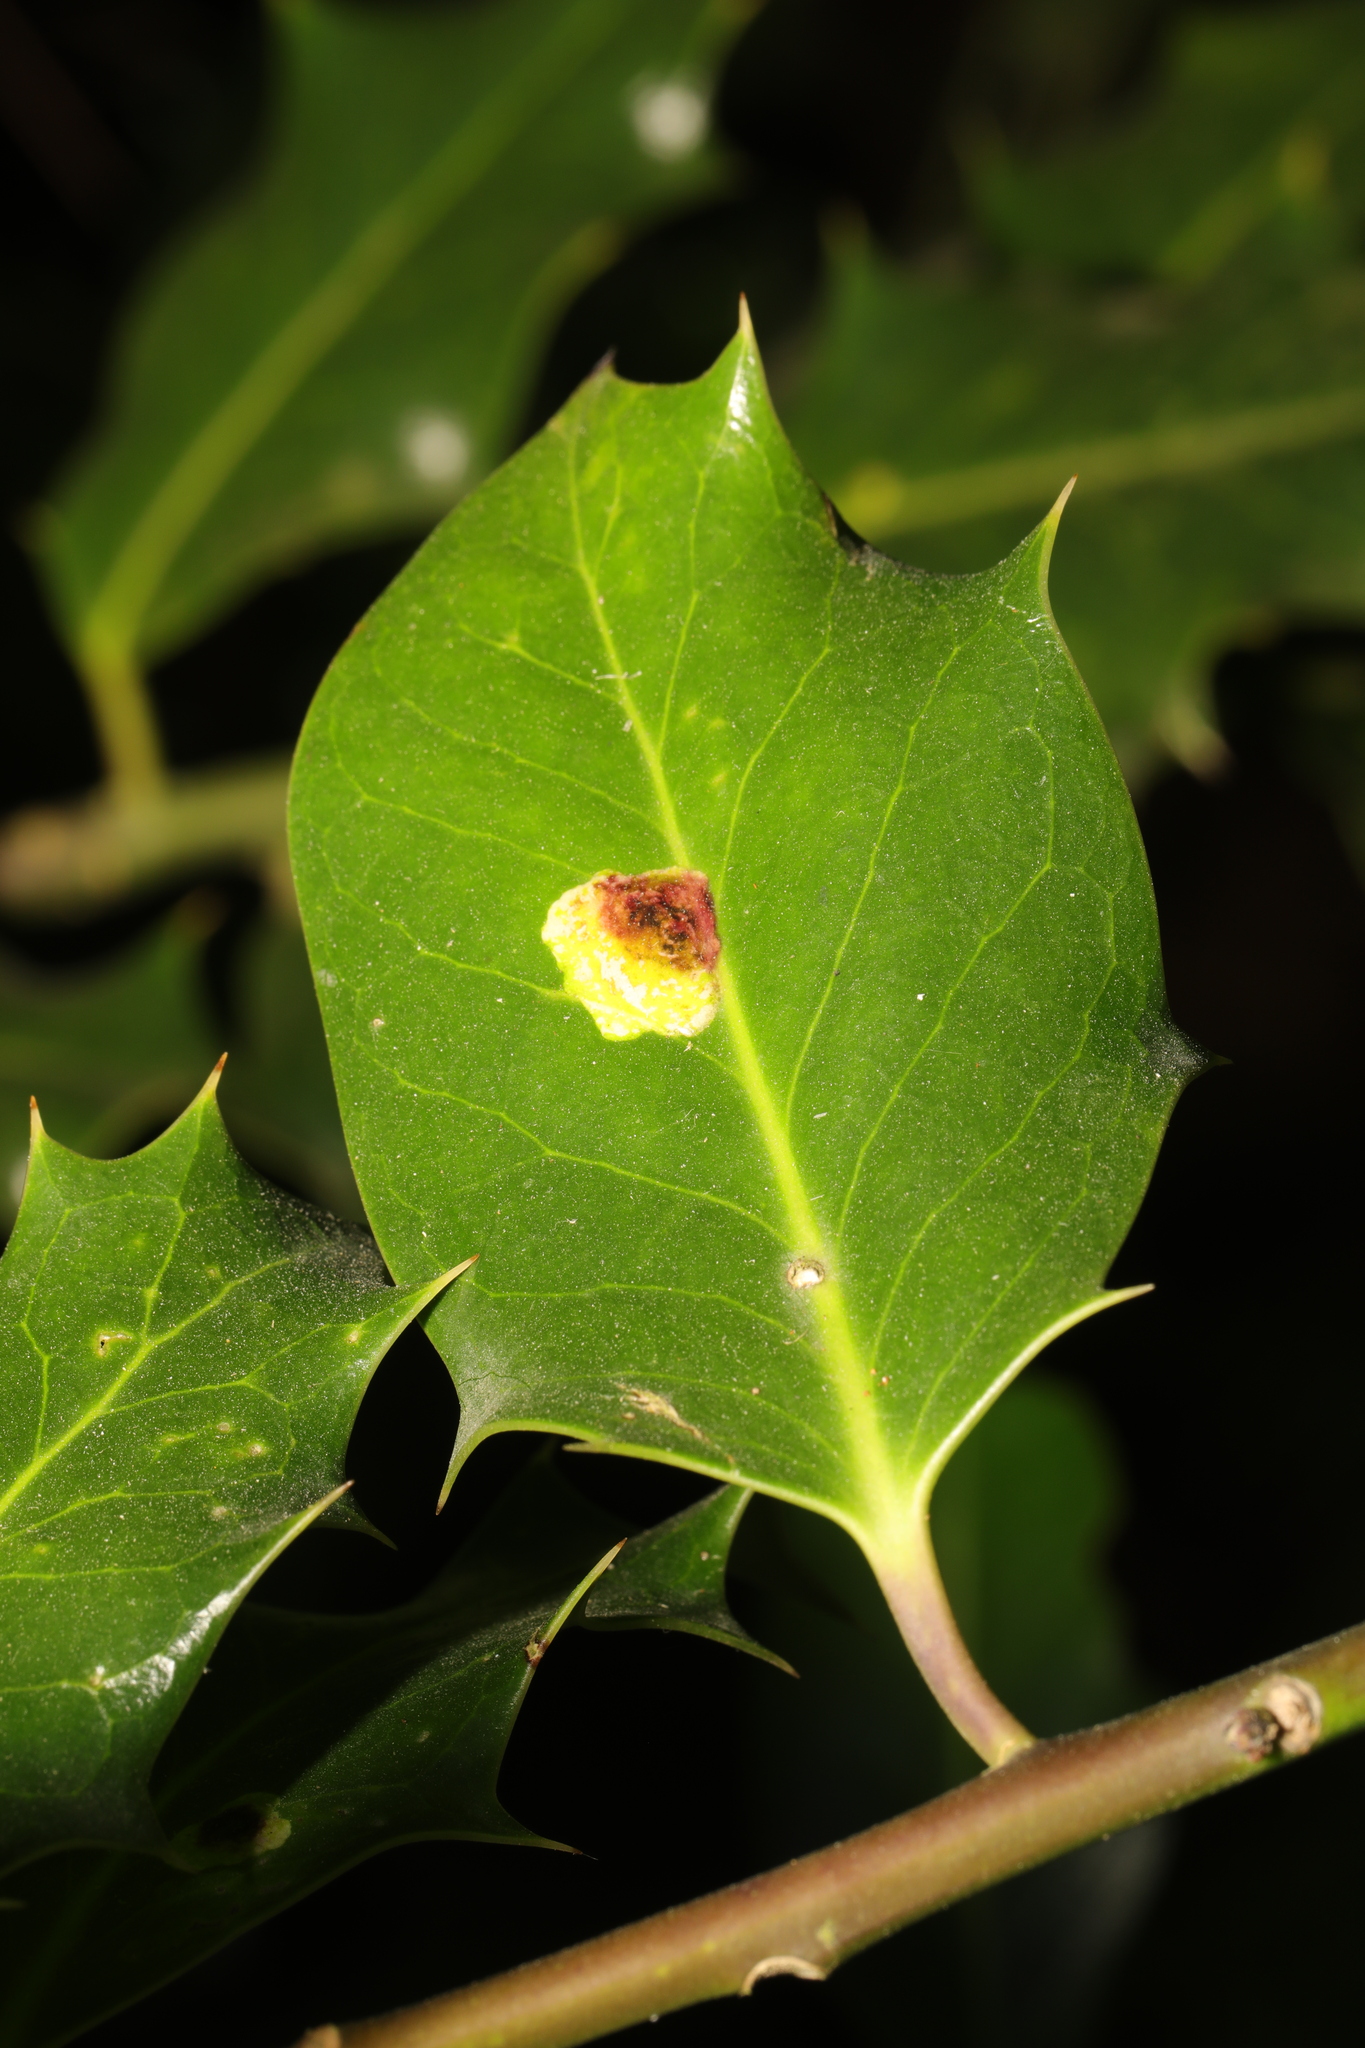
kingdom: Animalia
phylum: Arthropoda
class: Insecta
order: Diptera
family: Agromyzidae
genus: Phytomyza
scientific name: Phytomyza ilicis
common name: Holly leafminer
